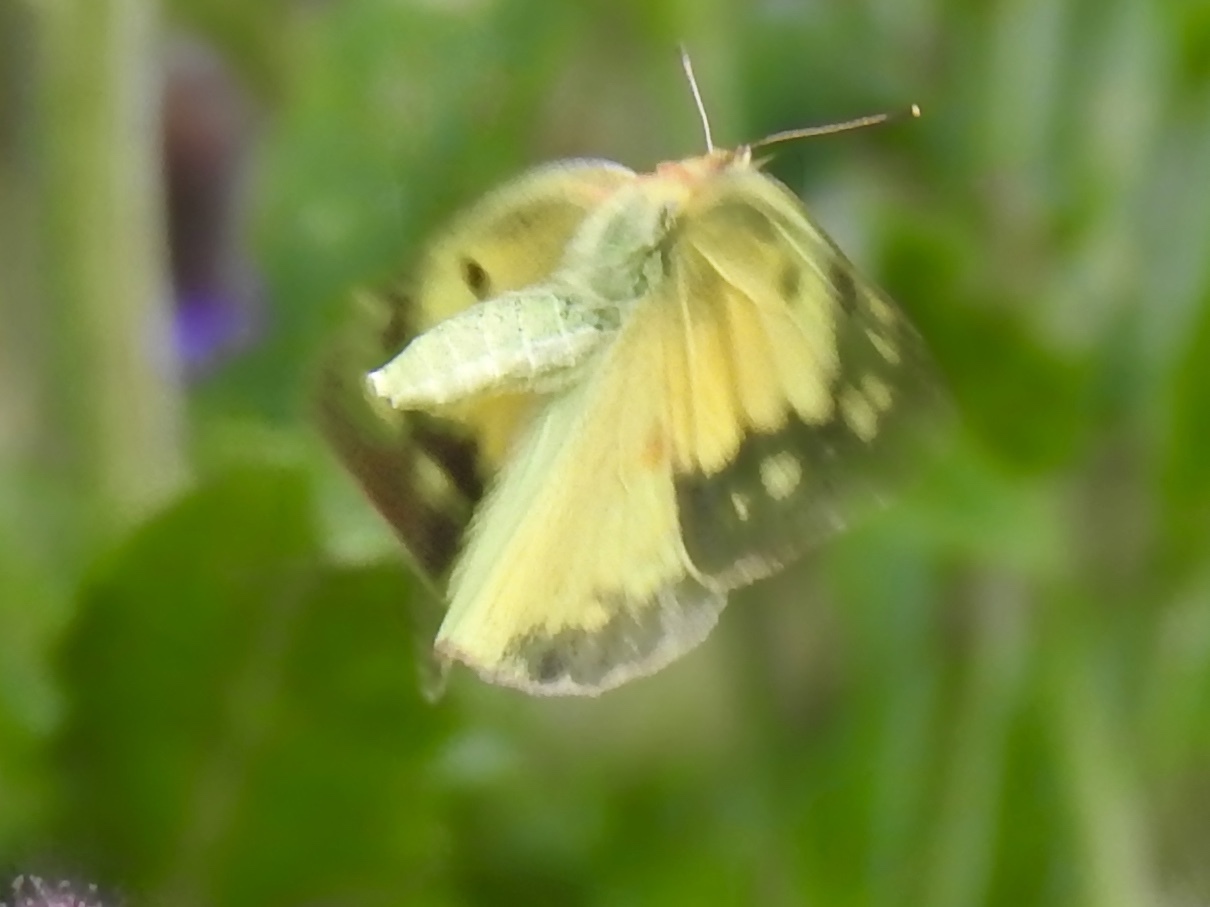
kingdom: Animalia
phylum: Arthropoda
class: Insecta
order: Lepidoptera
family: Pieridae
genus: Colias
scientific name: Colias eurytheme
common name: Alfalfa butterfly
